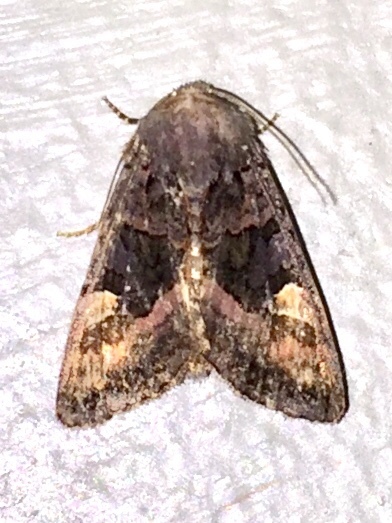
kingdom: Animalia
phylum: Arthropoda
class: Insecta
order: Lepidoptera
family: Noctuidae
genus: Euplexia
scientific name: Euplexia benesimilis
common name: American angle shades
